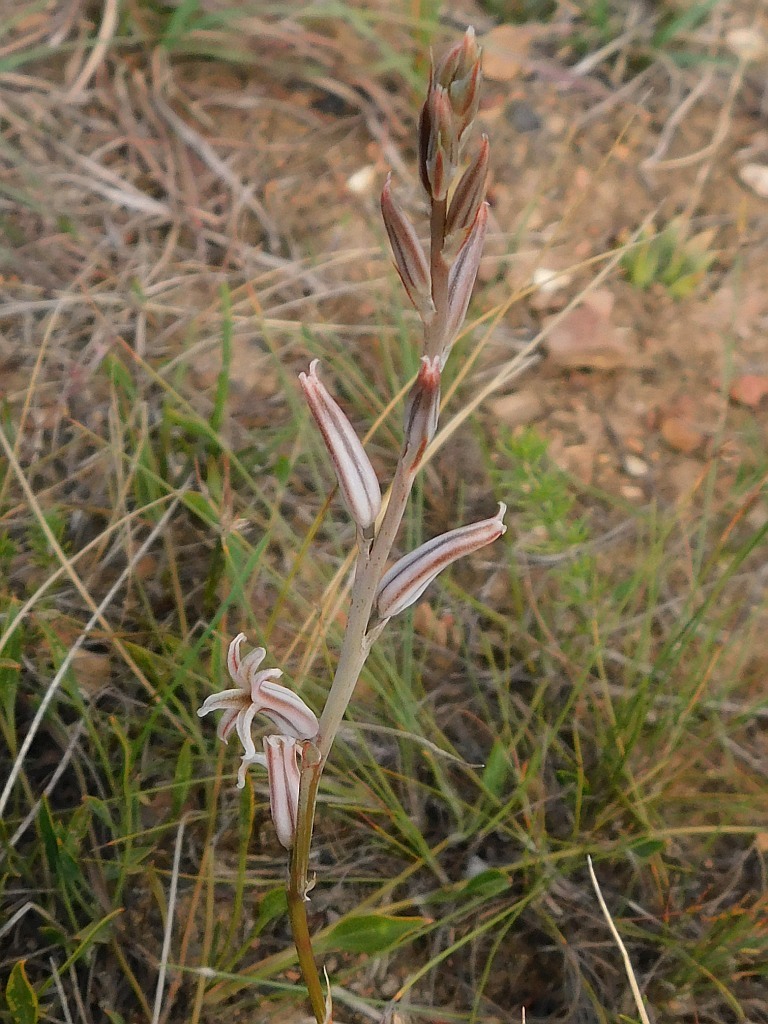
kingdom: Plantae
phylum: Tracheophyta
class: Liliopsida
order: Asparagales
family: Asphodelaceae
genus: Haworthia
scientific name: Haworthia mirabilis
